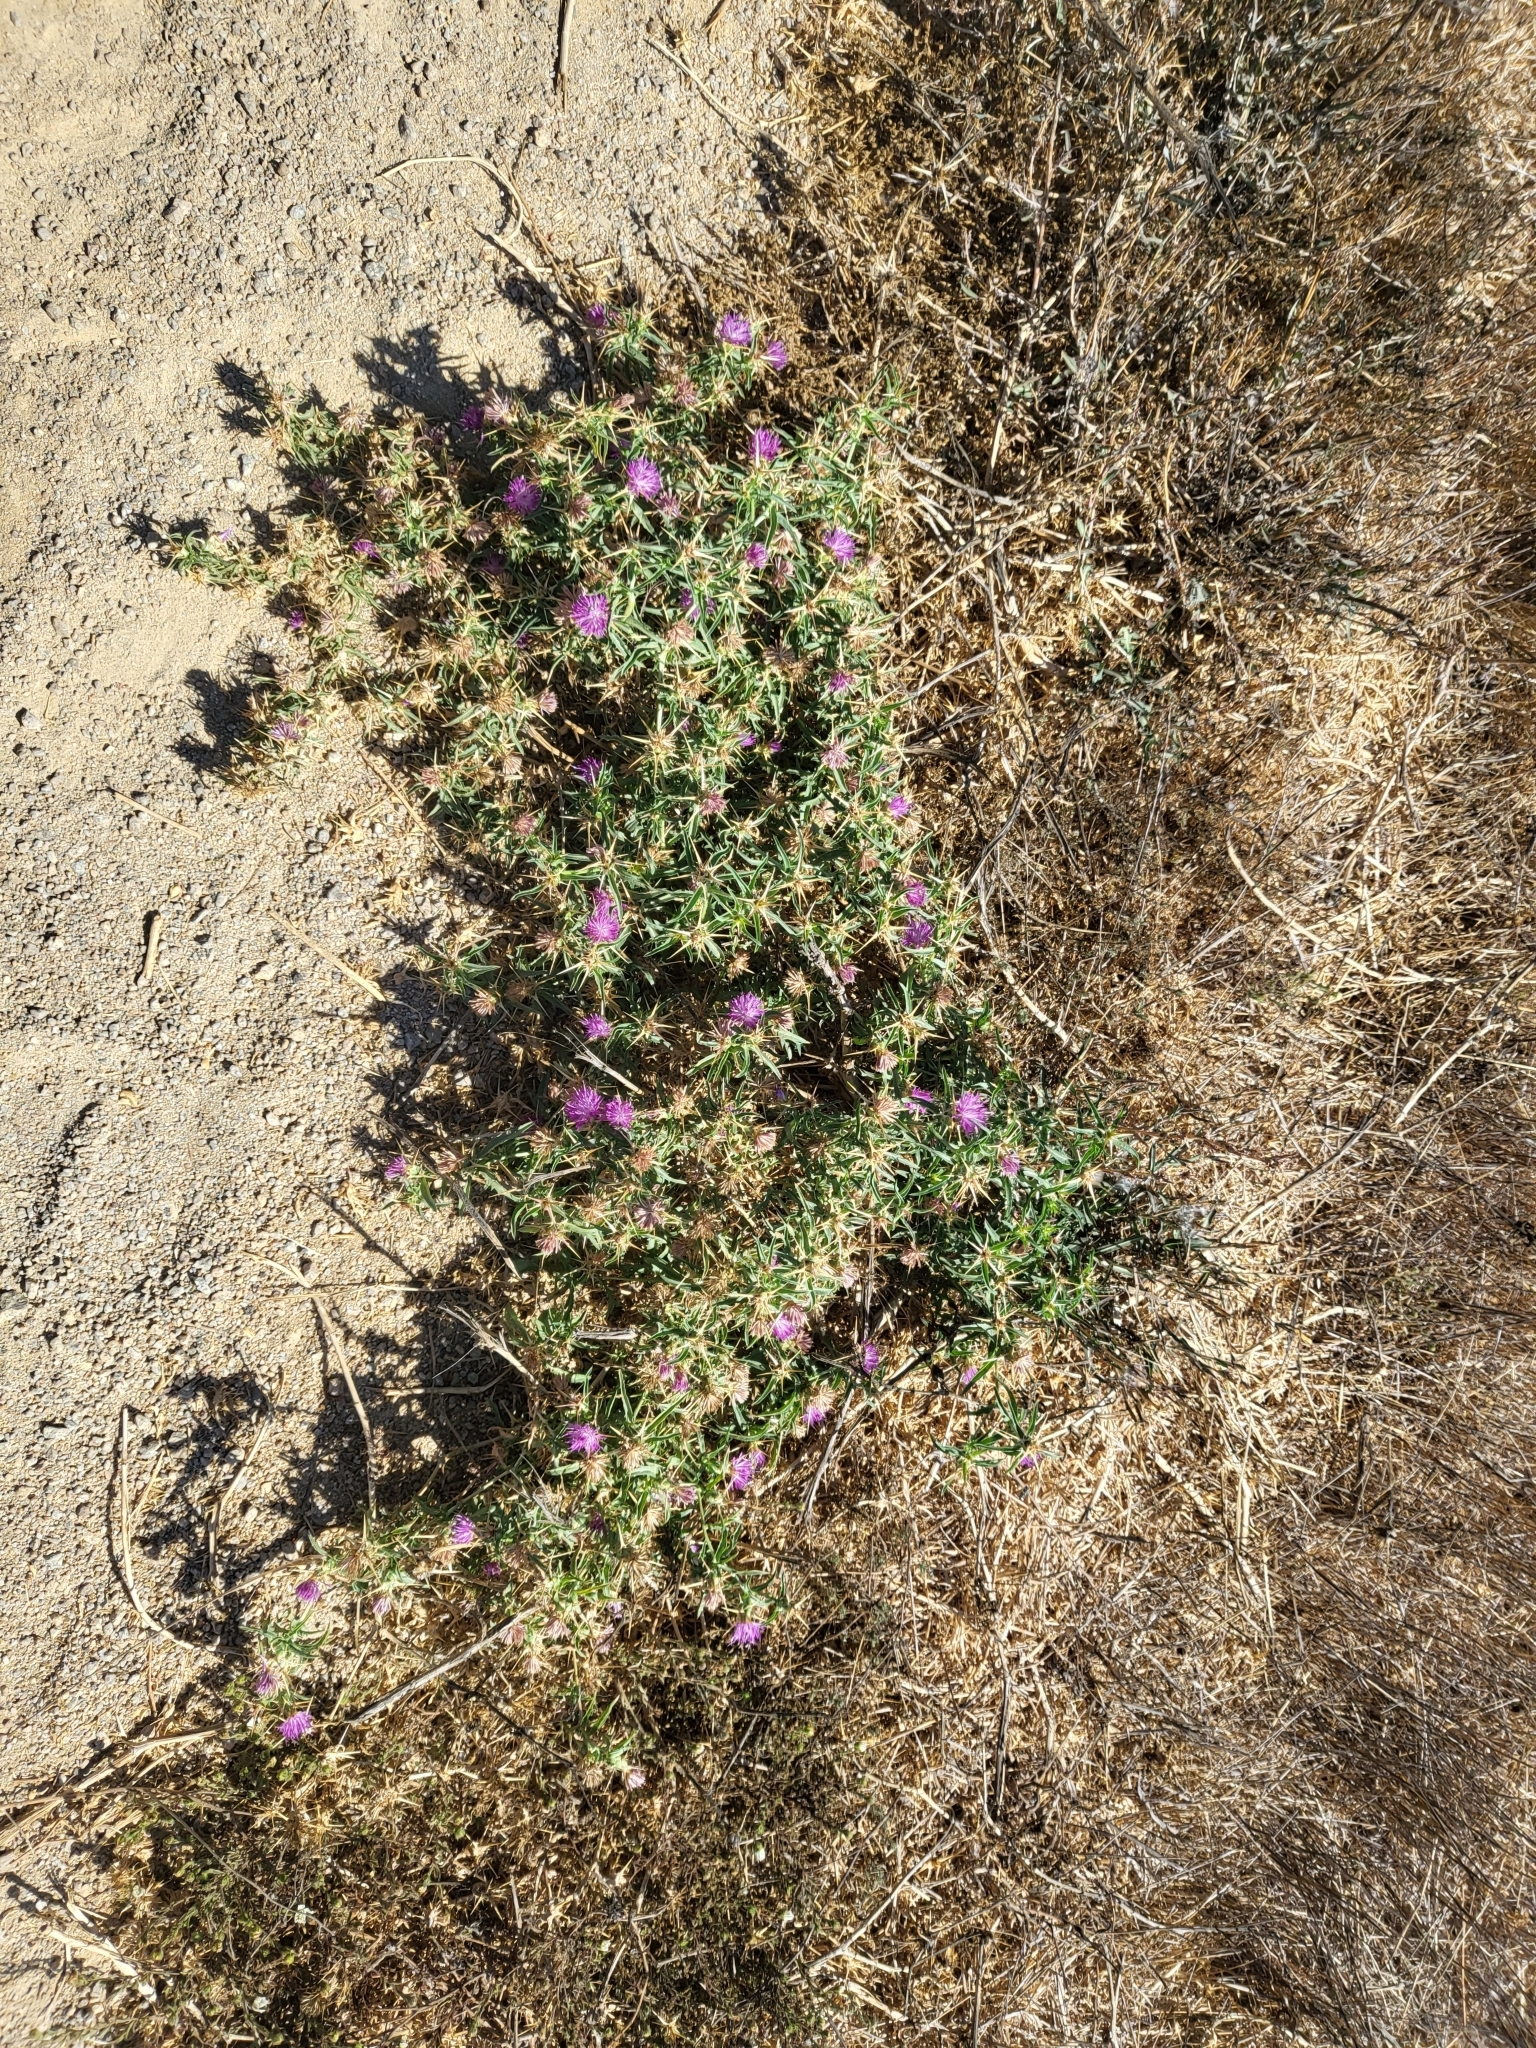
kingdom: Plantae
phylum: Tracheophyta
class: Magnoliopsida
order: Asterales
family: Asteraceae
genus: Centaurea
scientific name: Centaurea calcitrapa
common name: Red star-thistle
